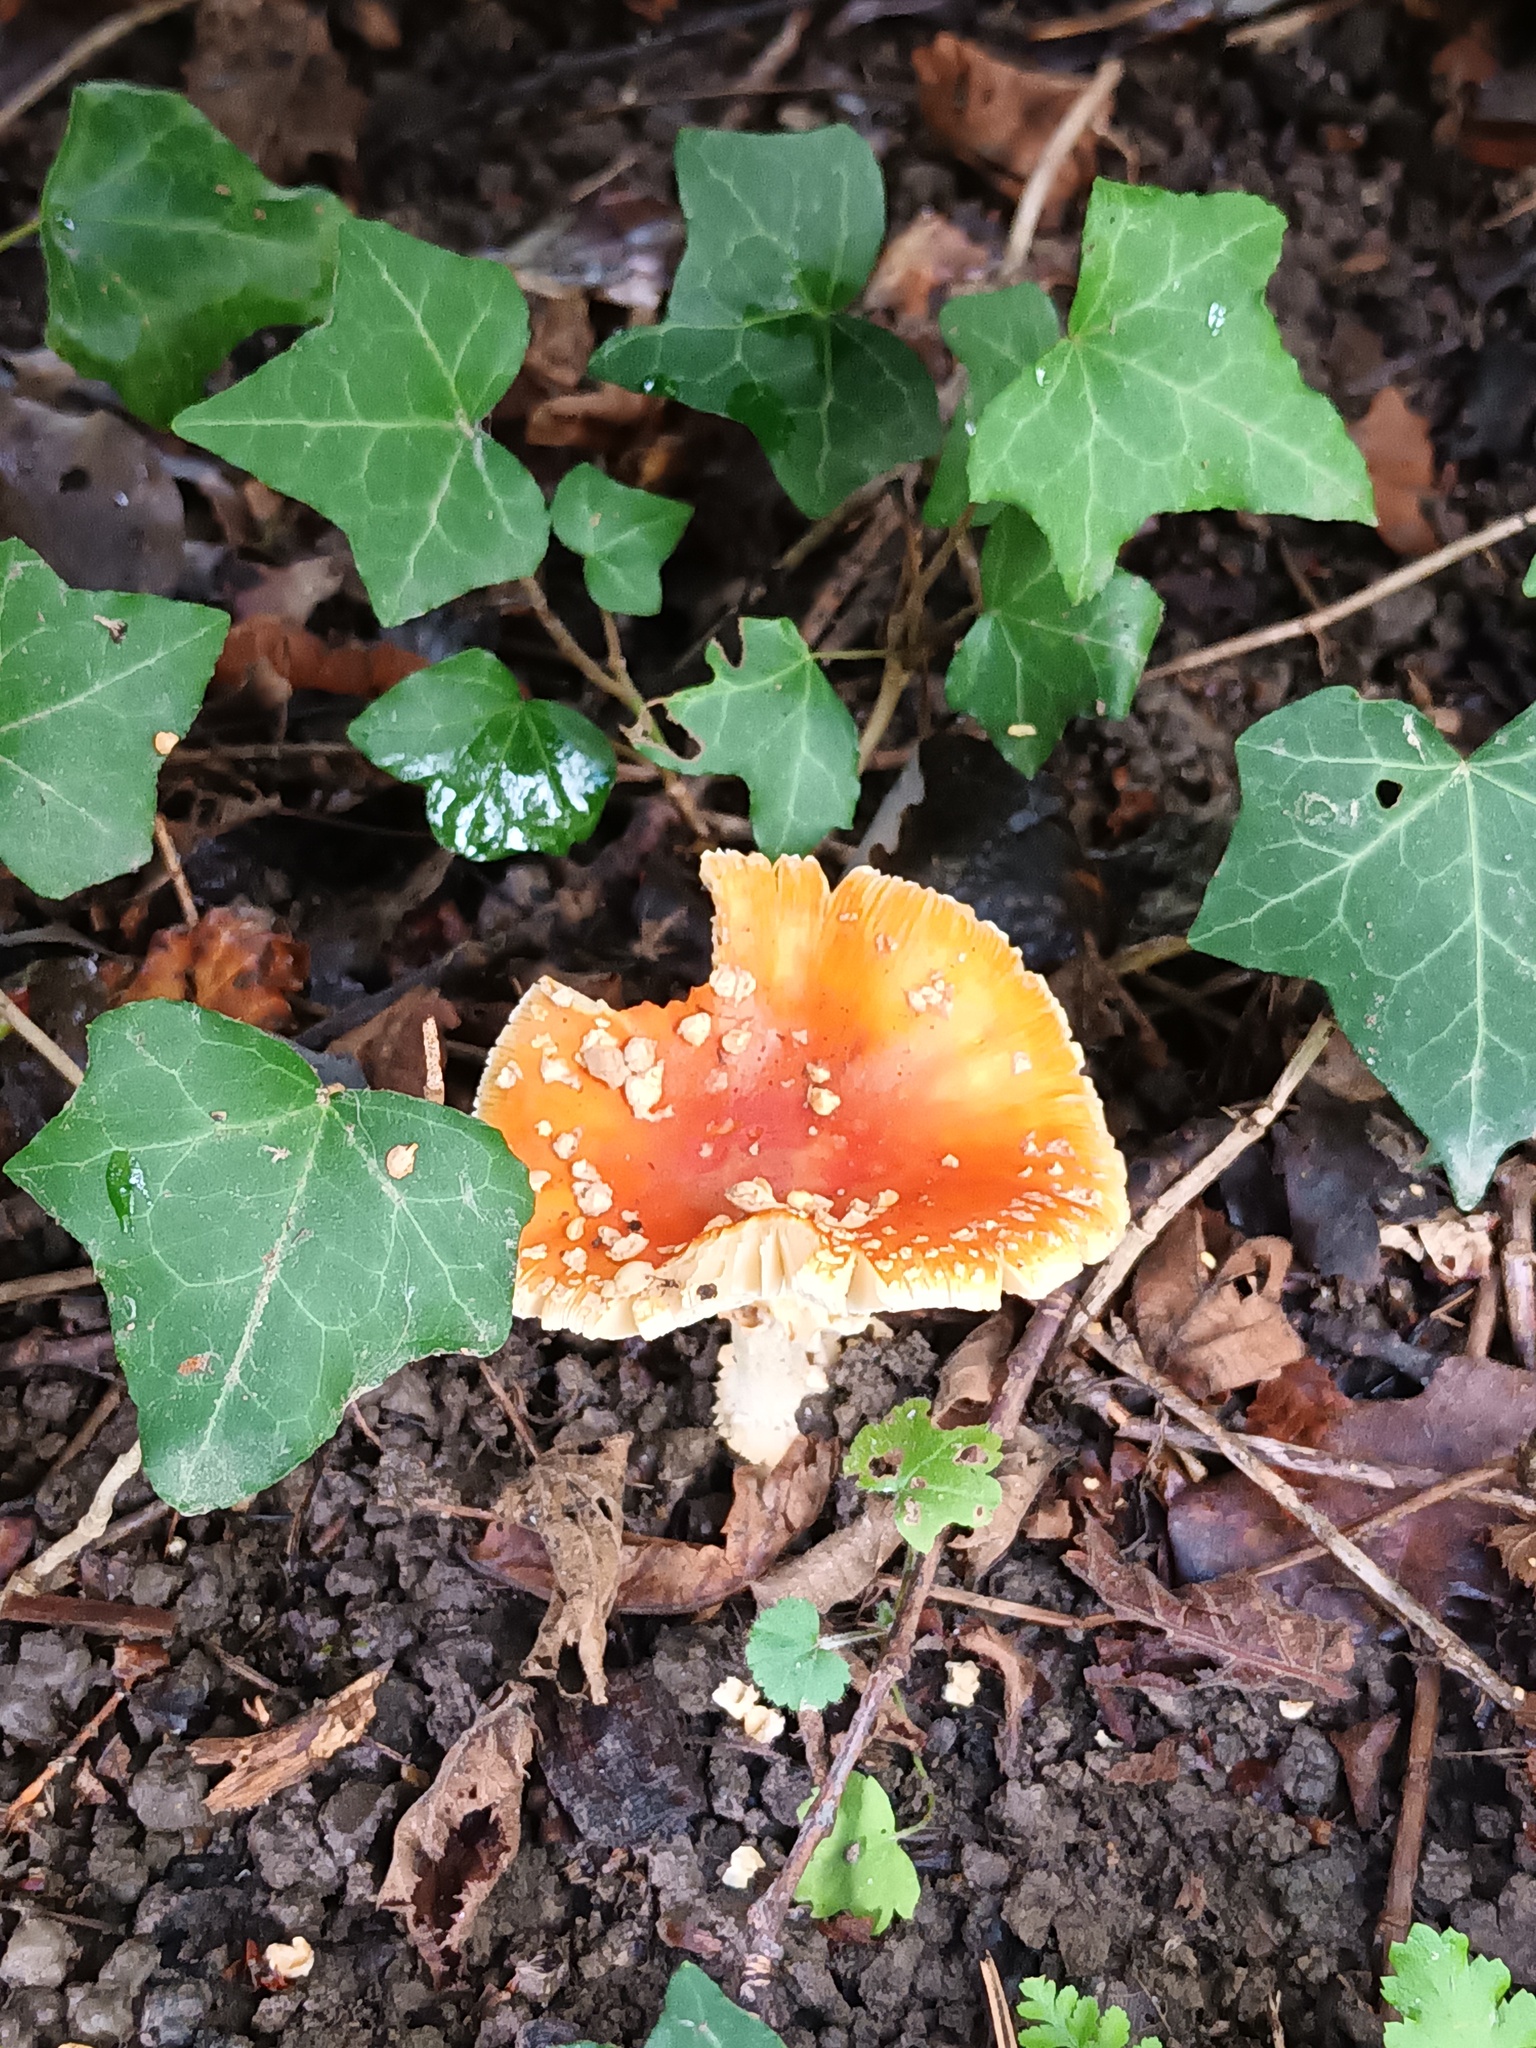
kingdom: Fungi
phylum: Basidiomycota
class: Agaricomycetes
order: Agaricales
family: Amanitaceae
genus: Amanita
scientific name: Amanita muscaria
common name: Fly agaric
